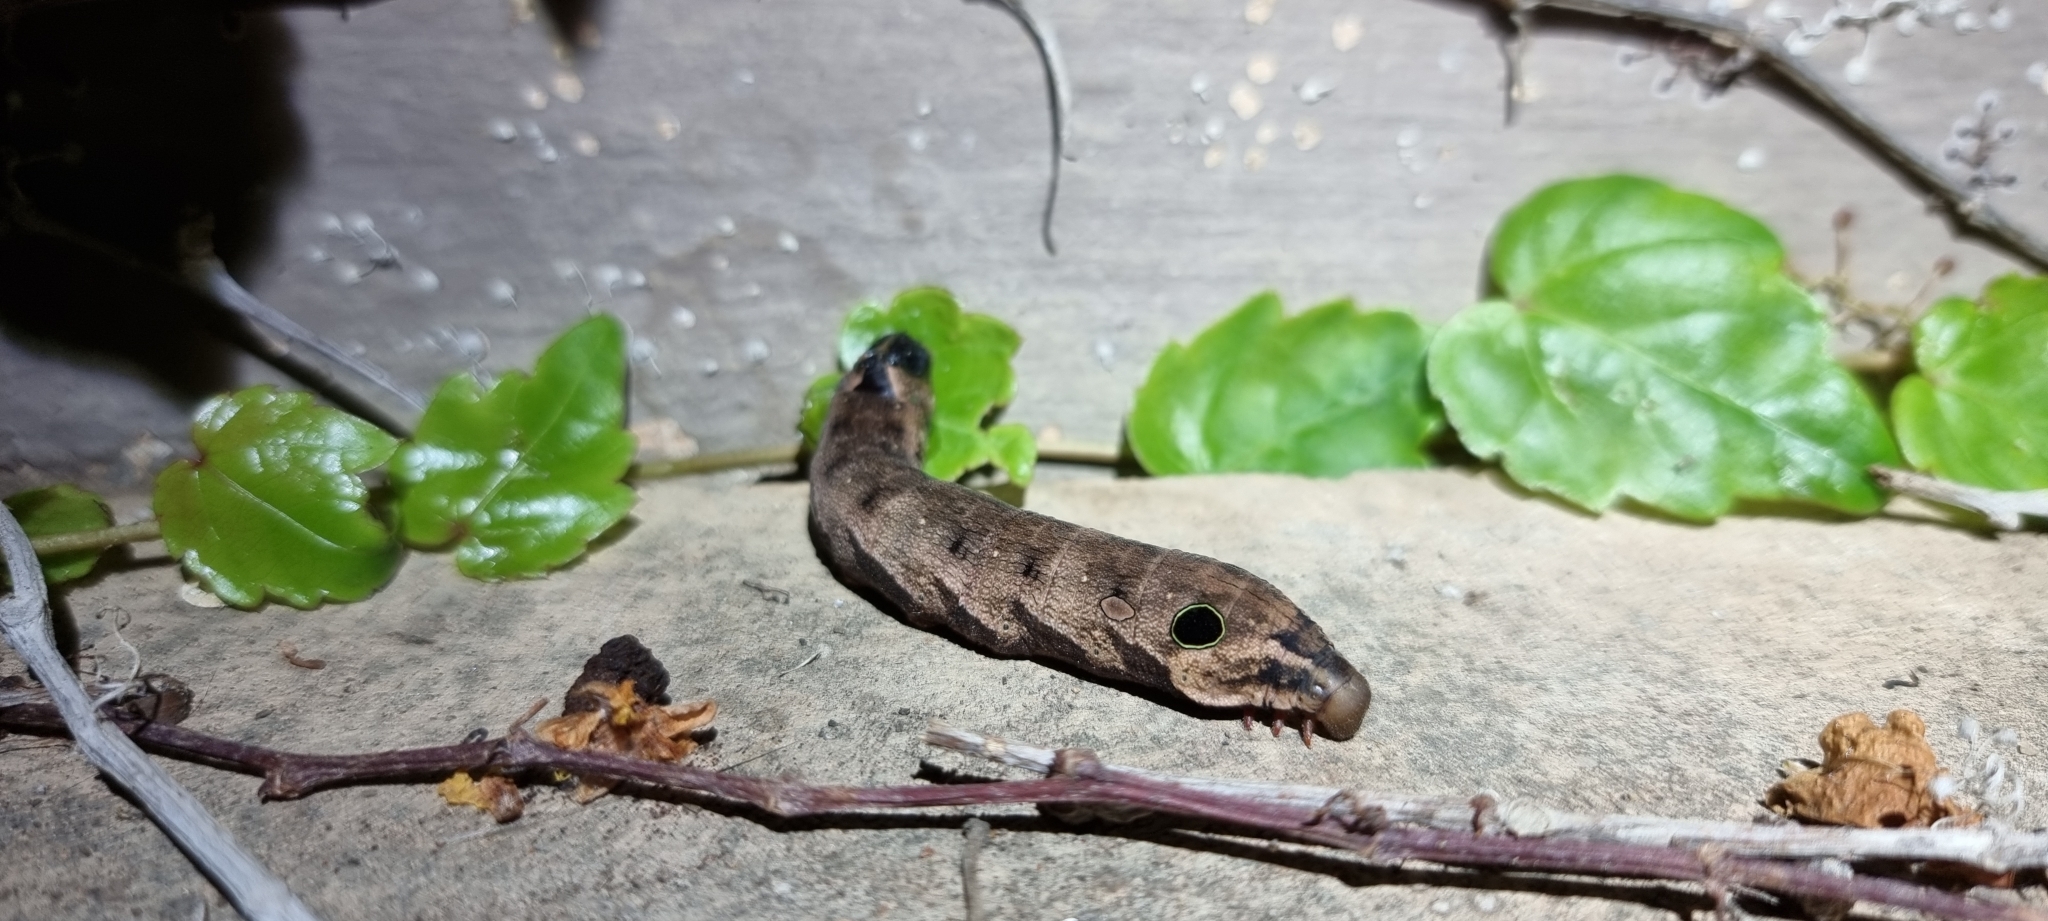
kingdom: Animalia
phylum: Arthropoda
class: Insecta
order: Lepidoptera
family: Sphingidae
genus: Hippotion
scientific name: Hippotion eson
